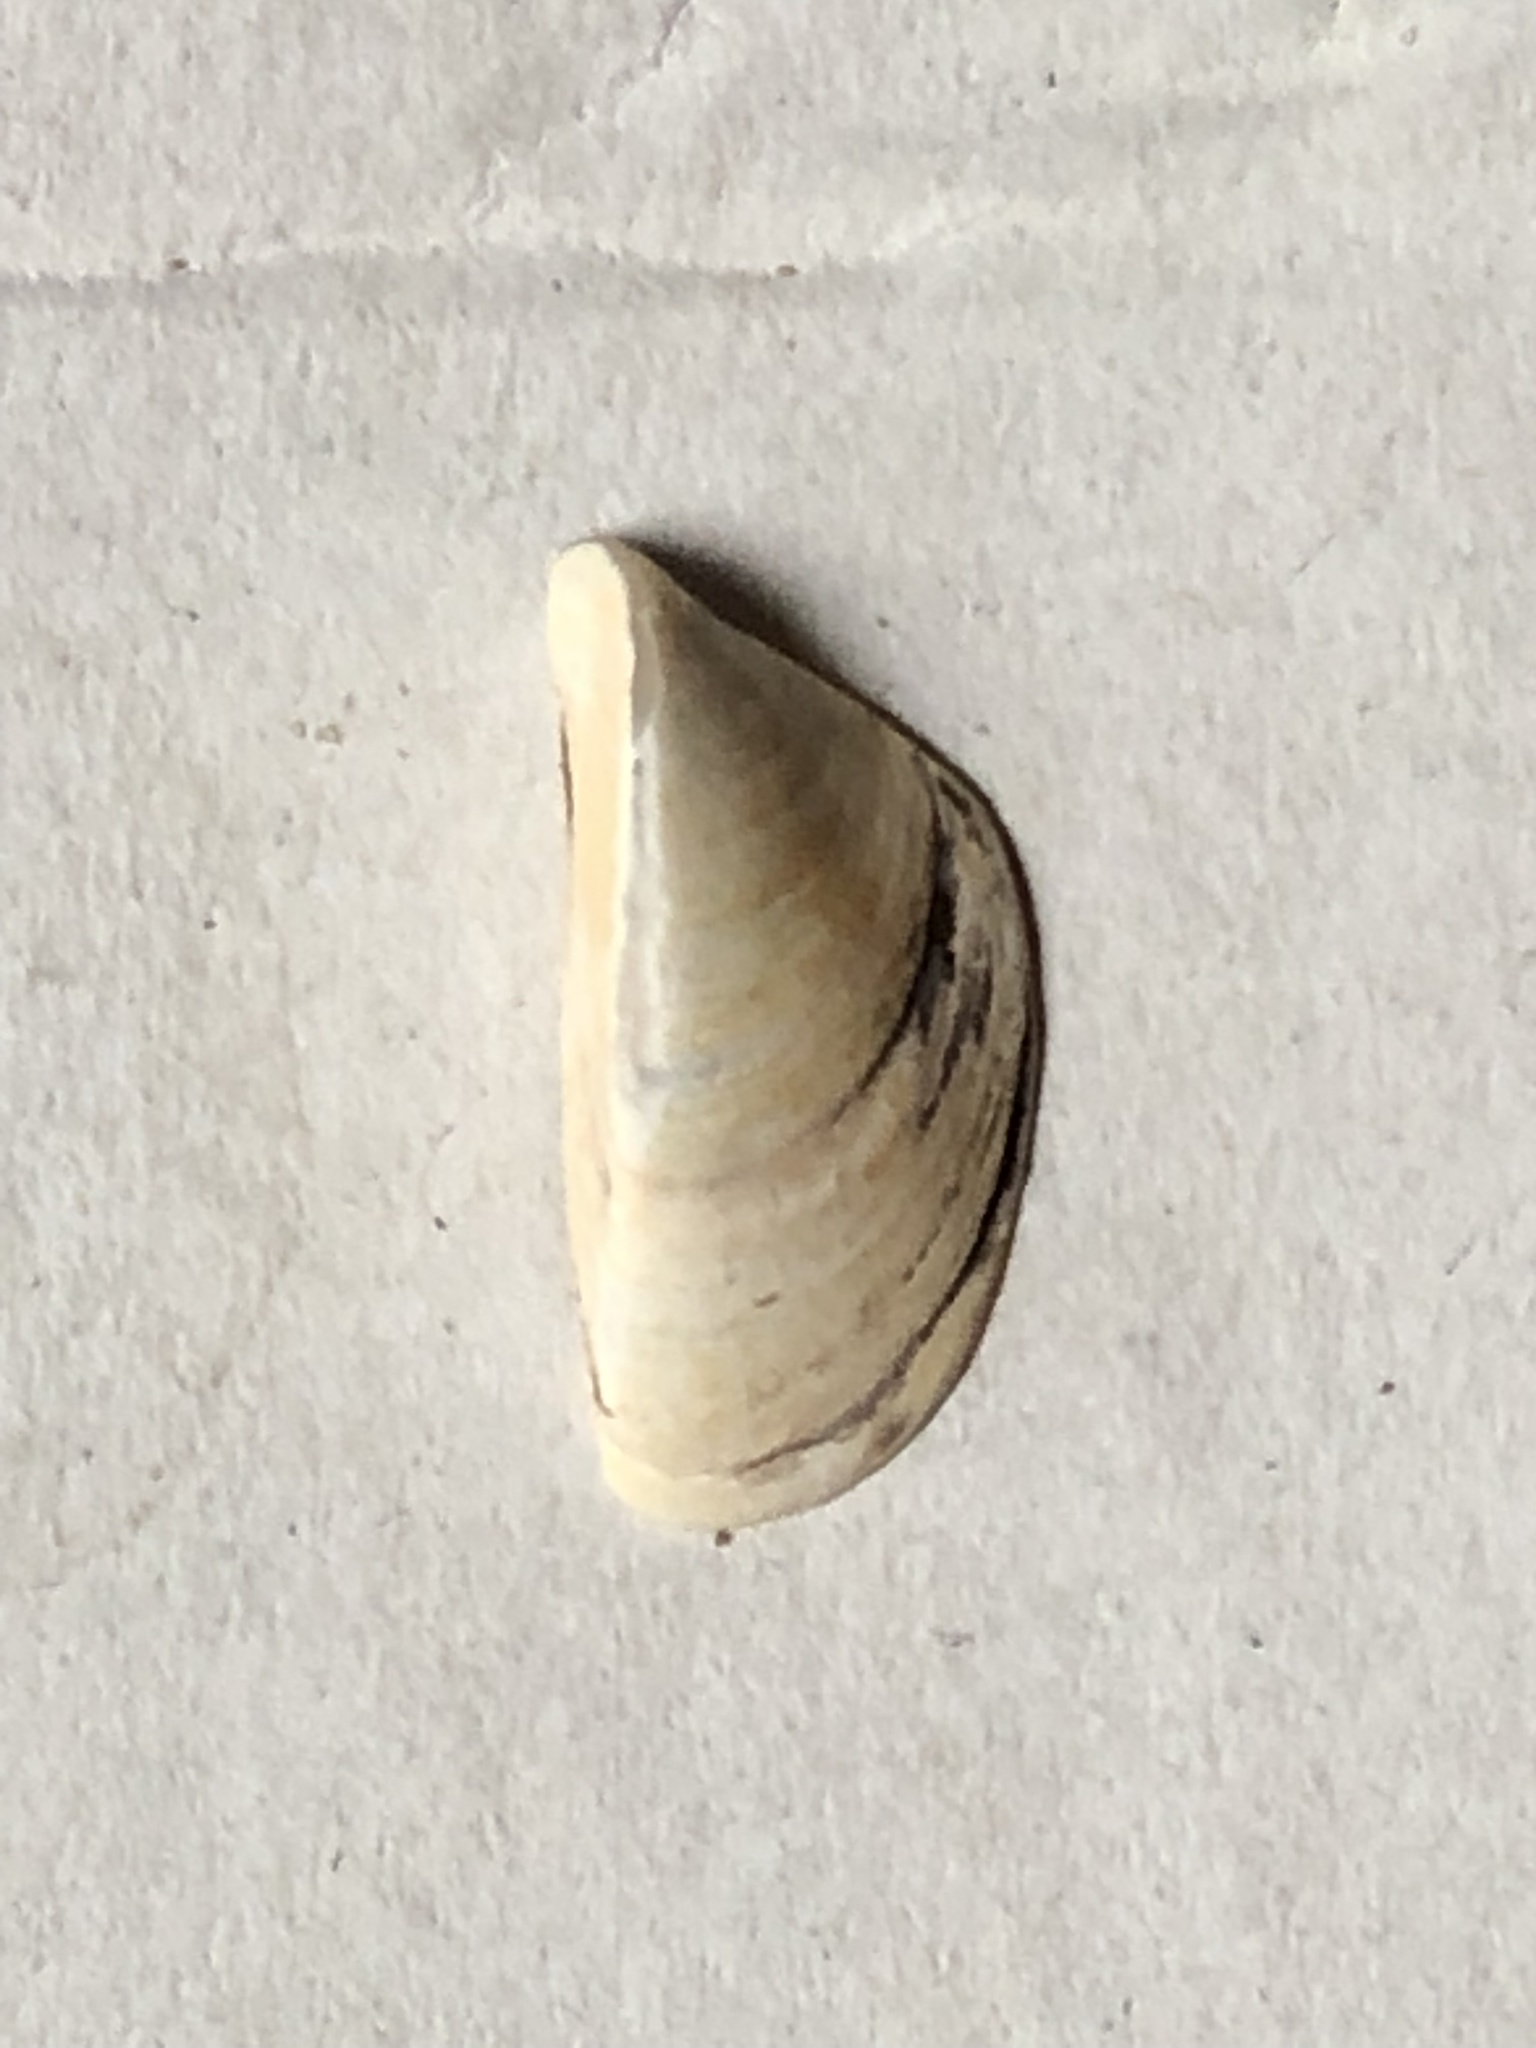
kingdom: Animalia
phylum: Mollusca
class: Bivalvia
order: Myida
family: Dreissenidae
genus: Dreissena
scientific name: Dreissena polymorpha
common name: Zebra mussel
